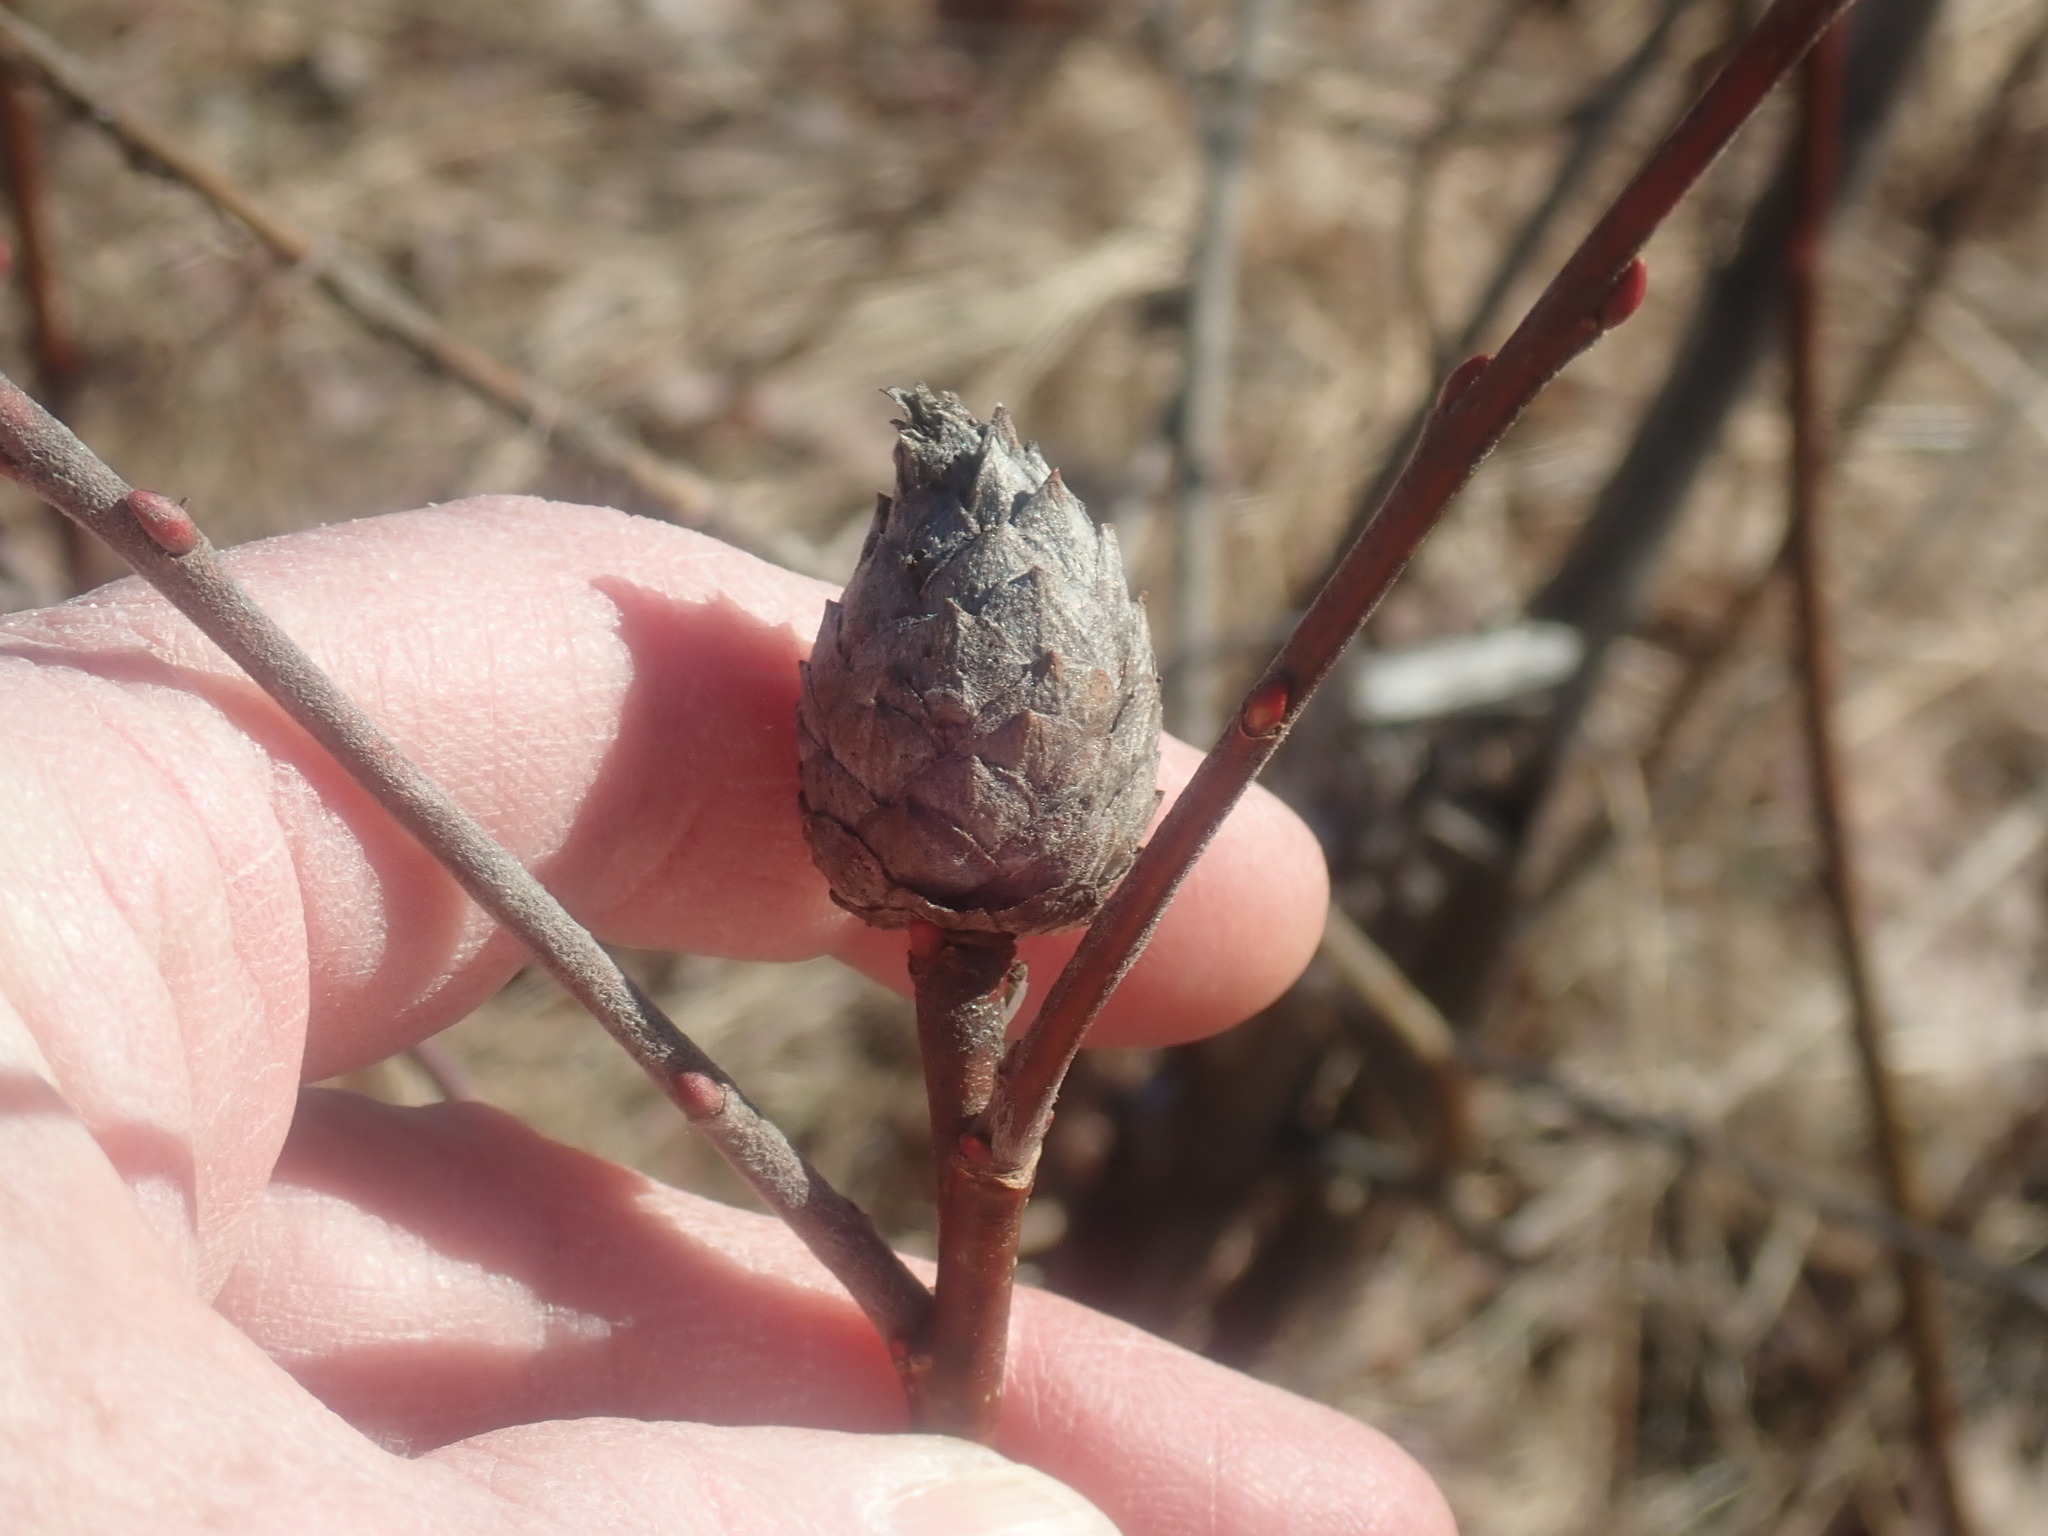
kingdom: Animalia
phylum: Arthropoda
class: Insecta
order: Diptera
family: Cecidomyiidae
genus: Rabdophaga
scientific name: Rabdophaga strobiloides
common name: Willow pinecone gall midge
